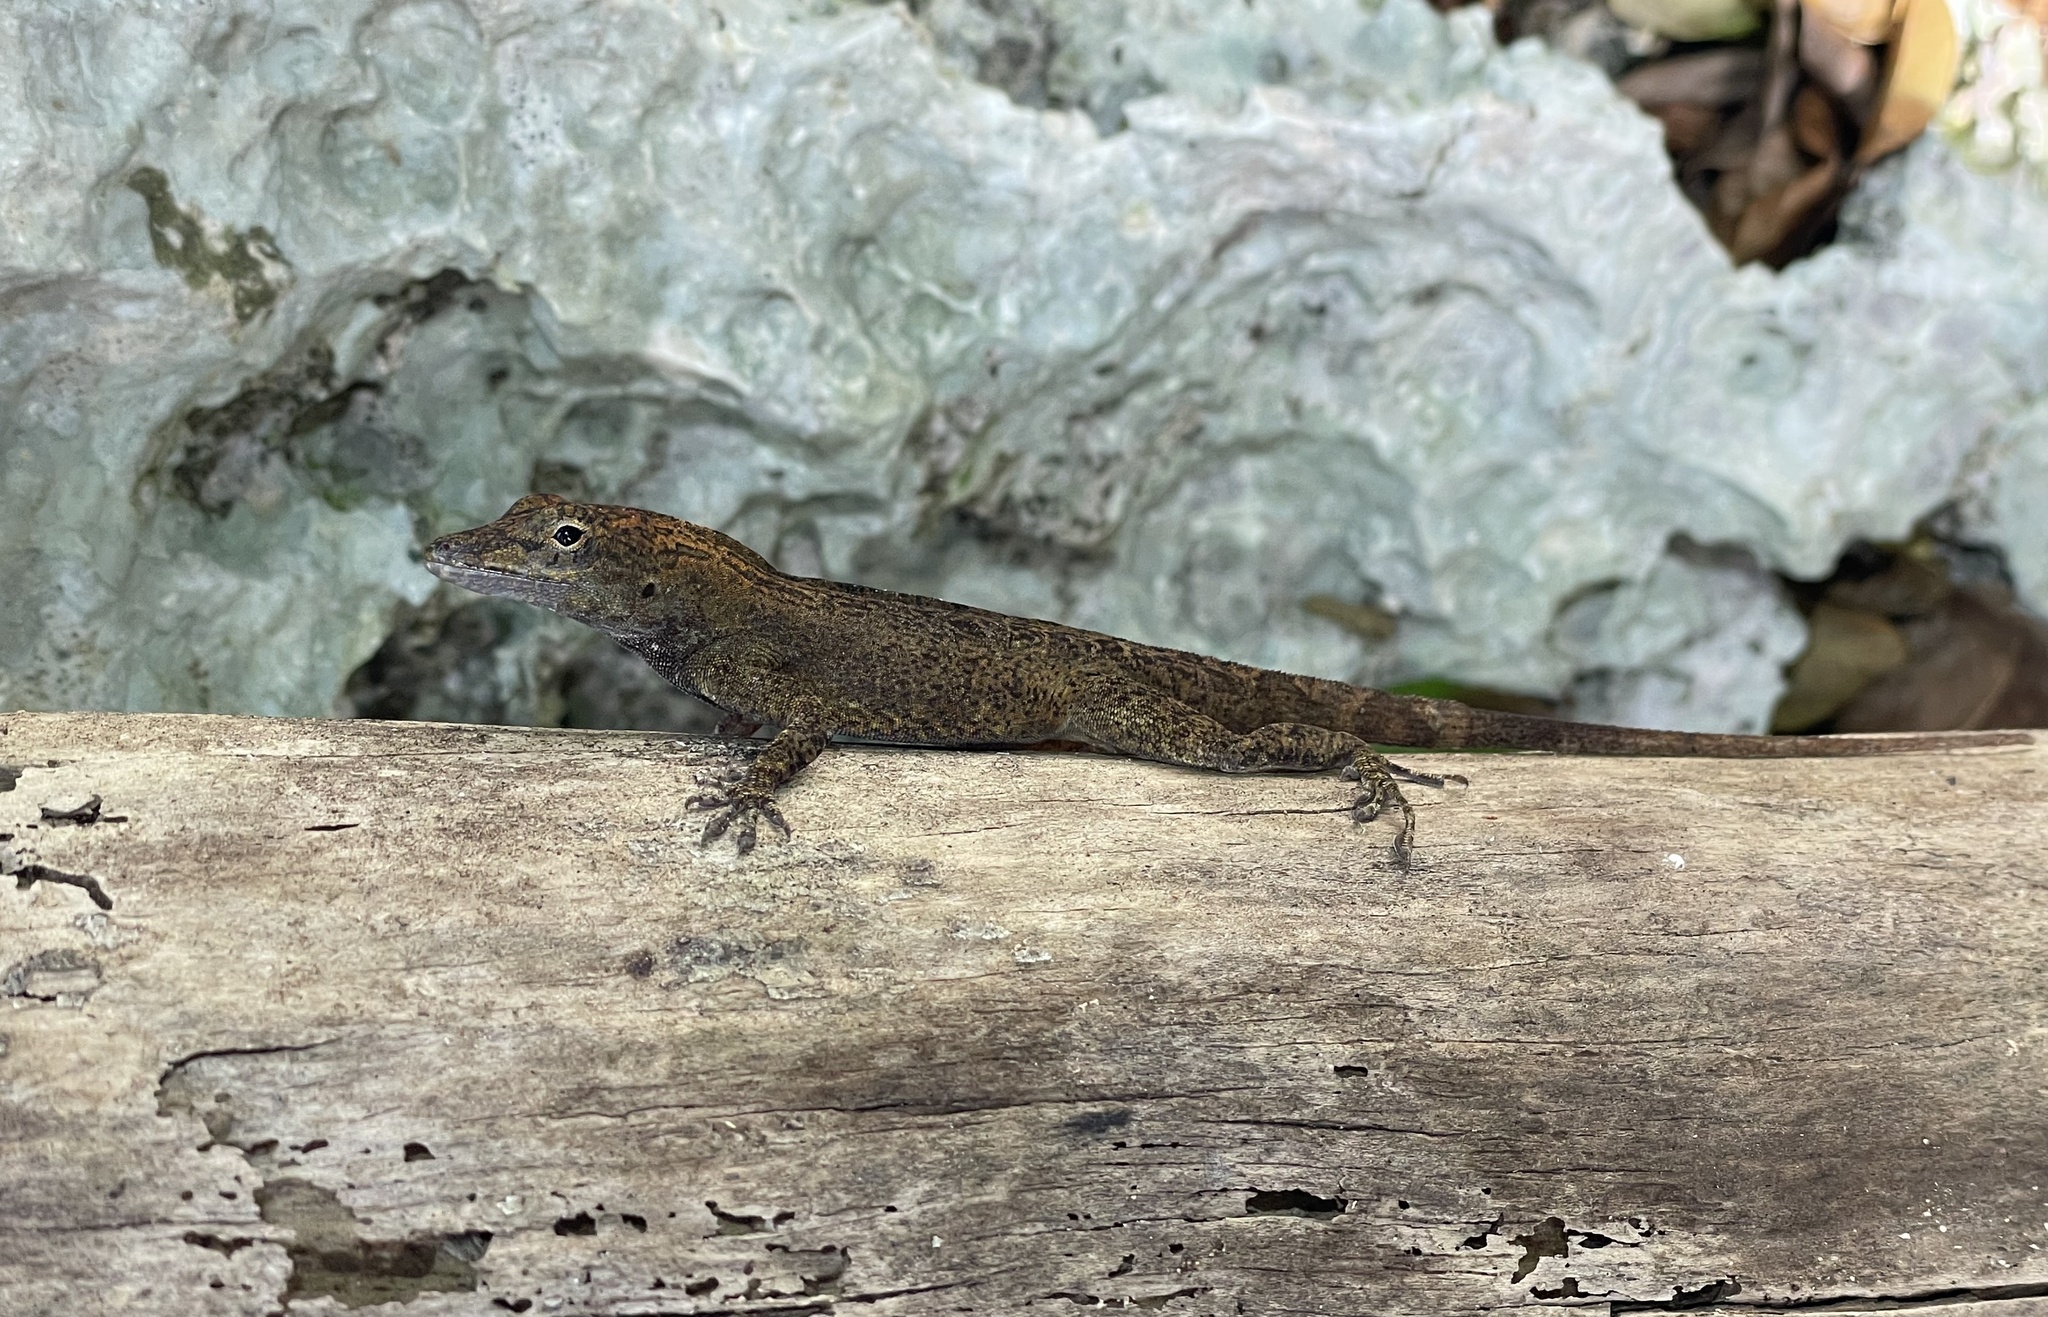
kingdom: Animalia
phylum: Chordata
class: Squamata
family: Dactyloidae
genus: Anolis
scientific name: Anolis scriptus
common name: Silver key anole
